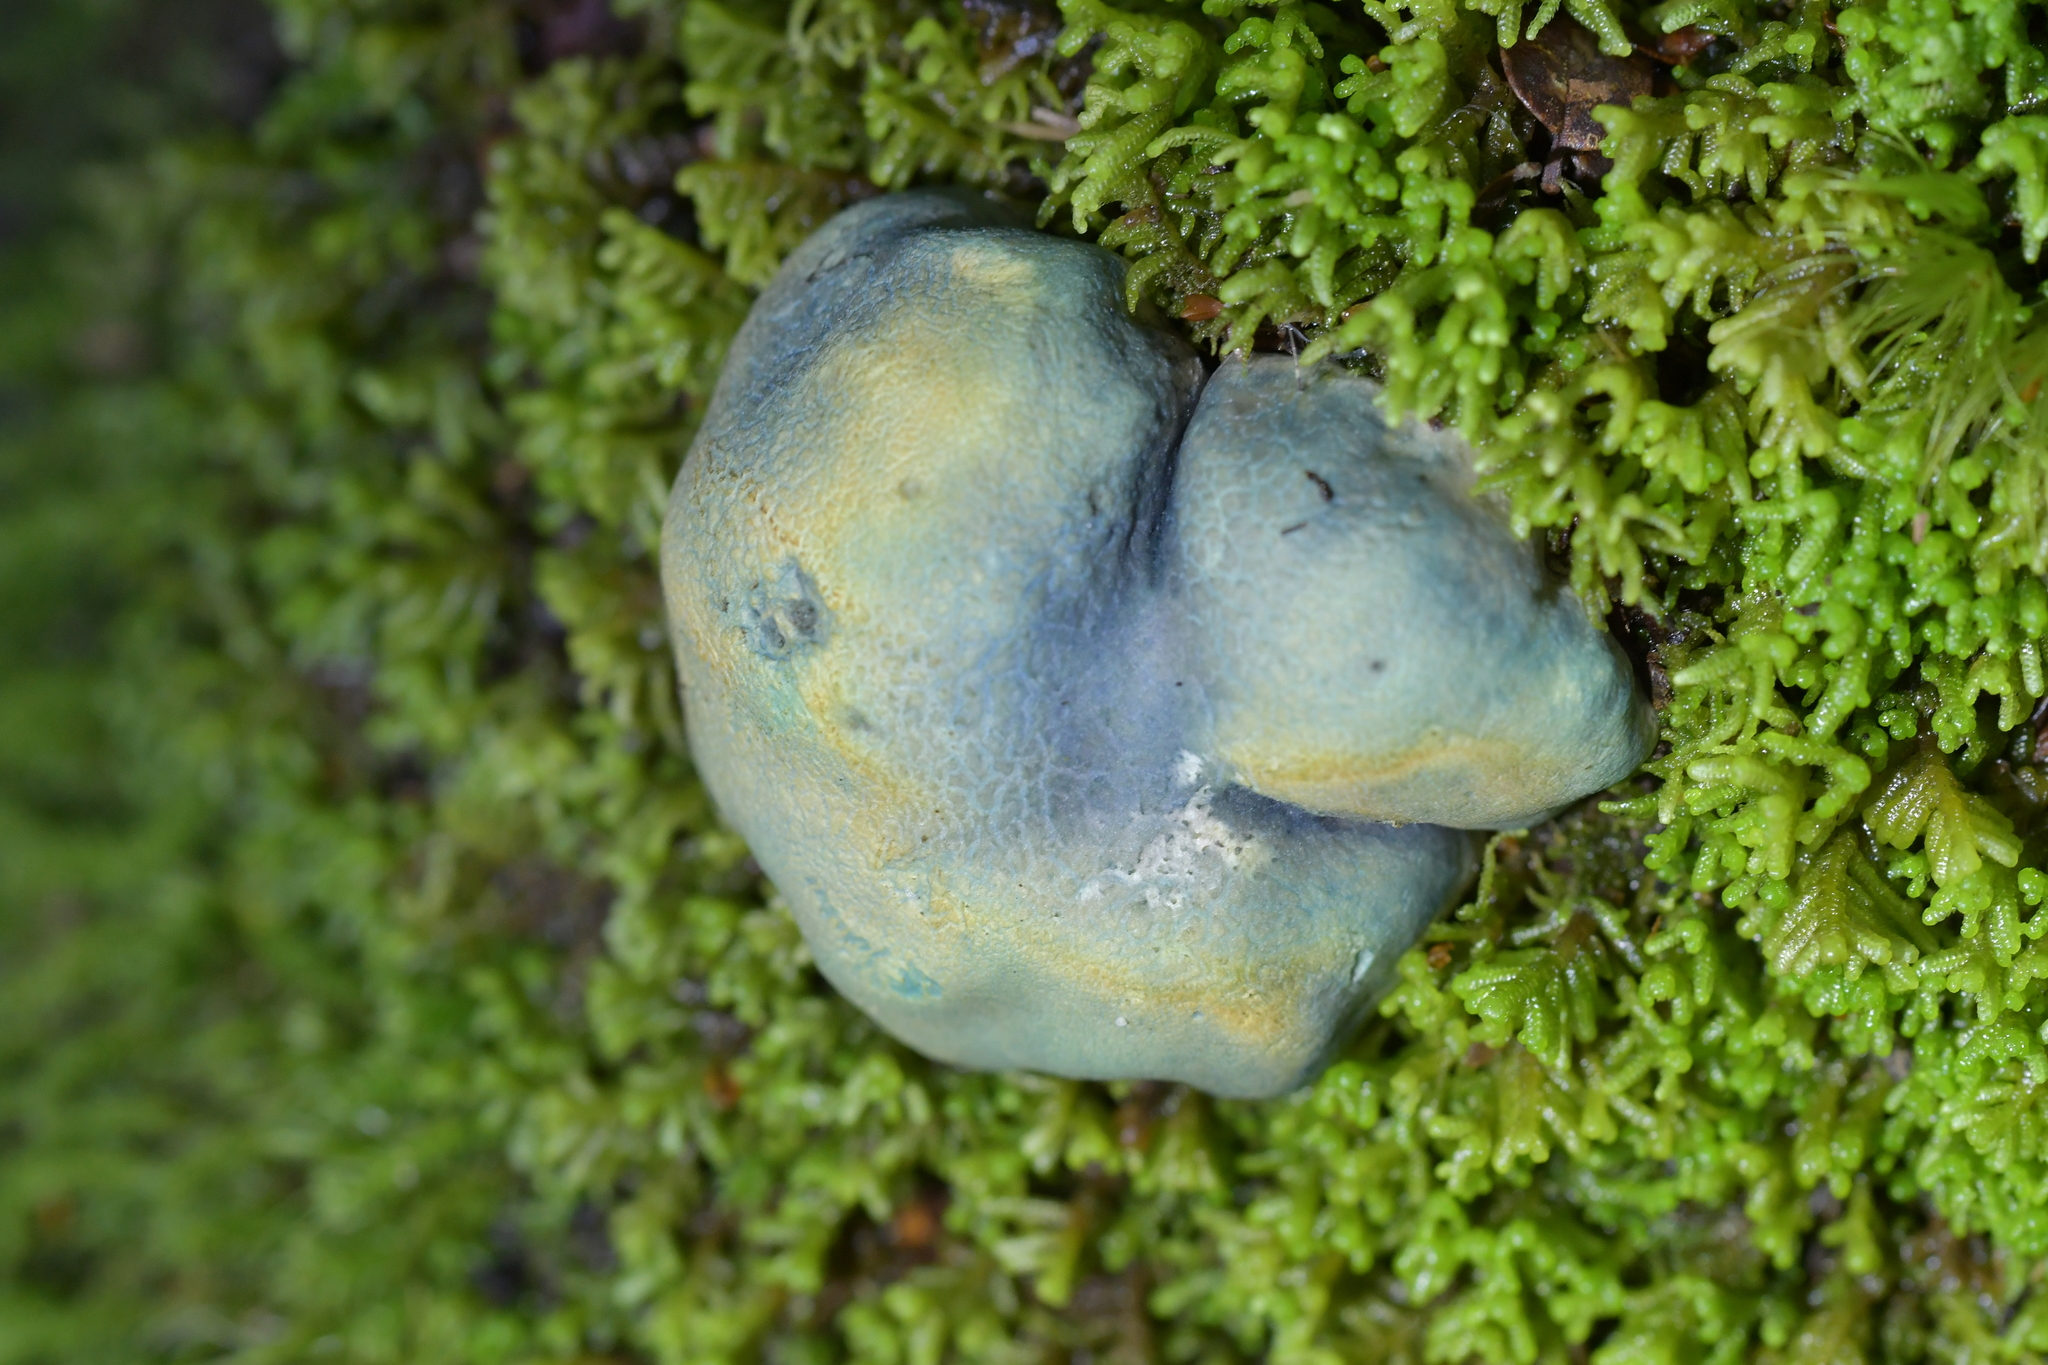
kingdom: Fungi
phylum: Basidiomycota
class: Agaricomycetes
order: Boletales
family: Boletaceae
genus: Leccinum
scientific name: Leccinum pachyderme
